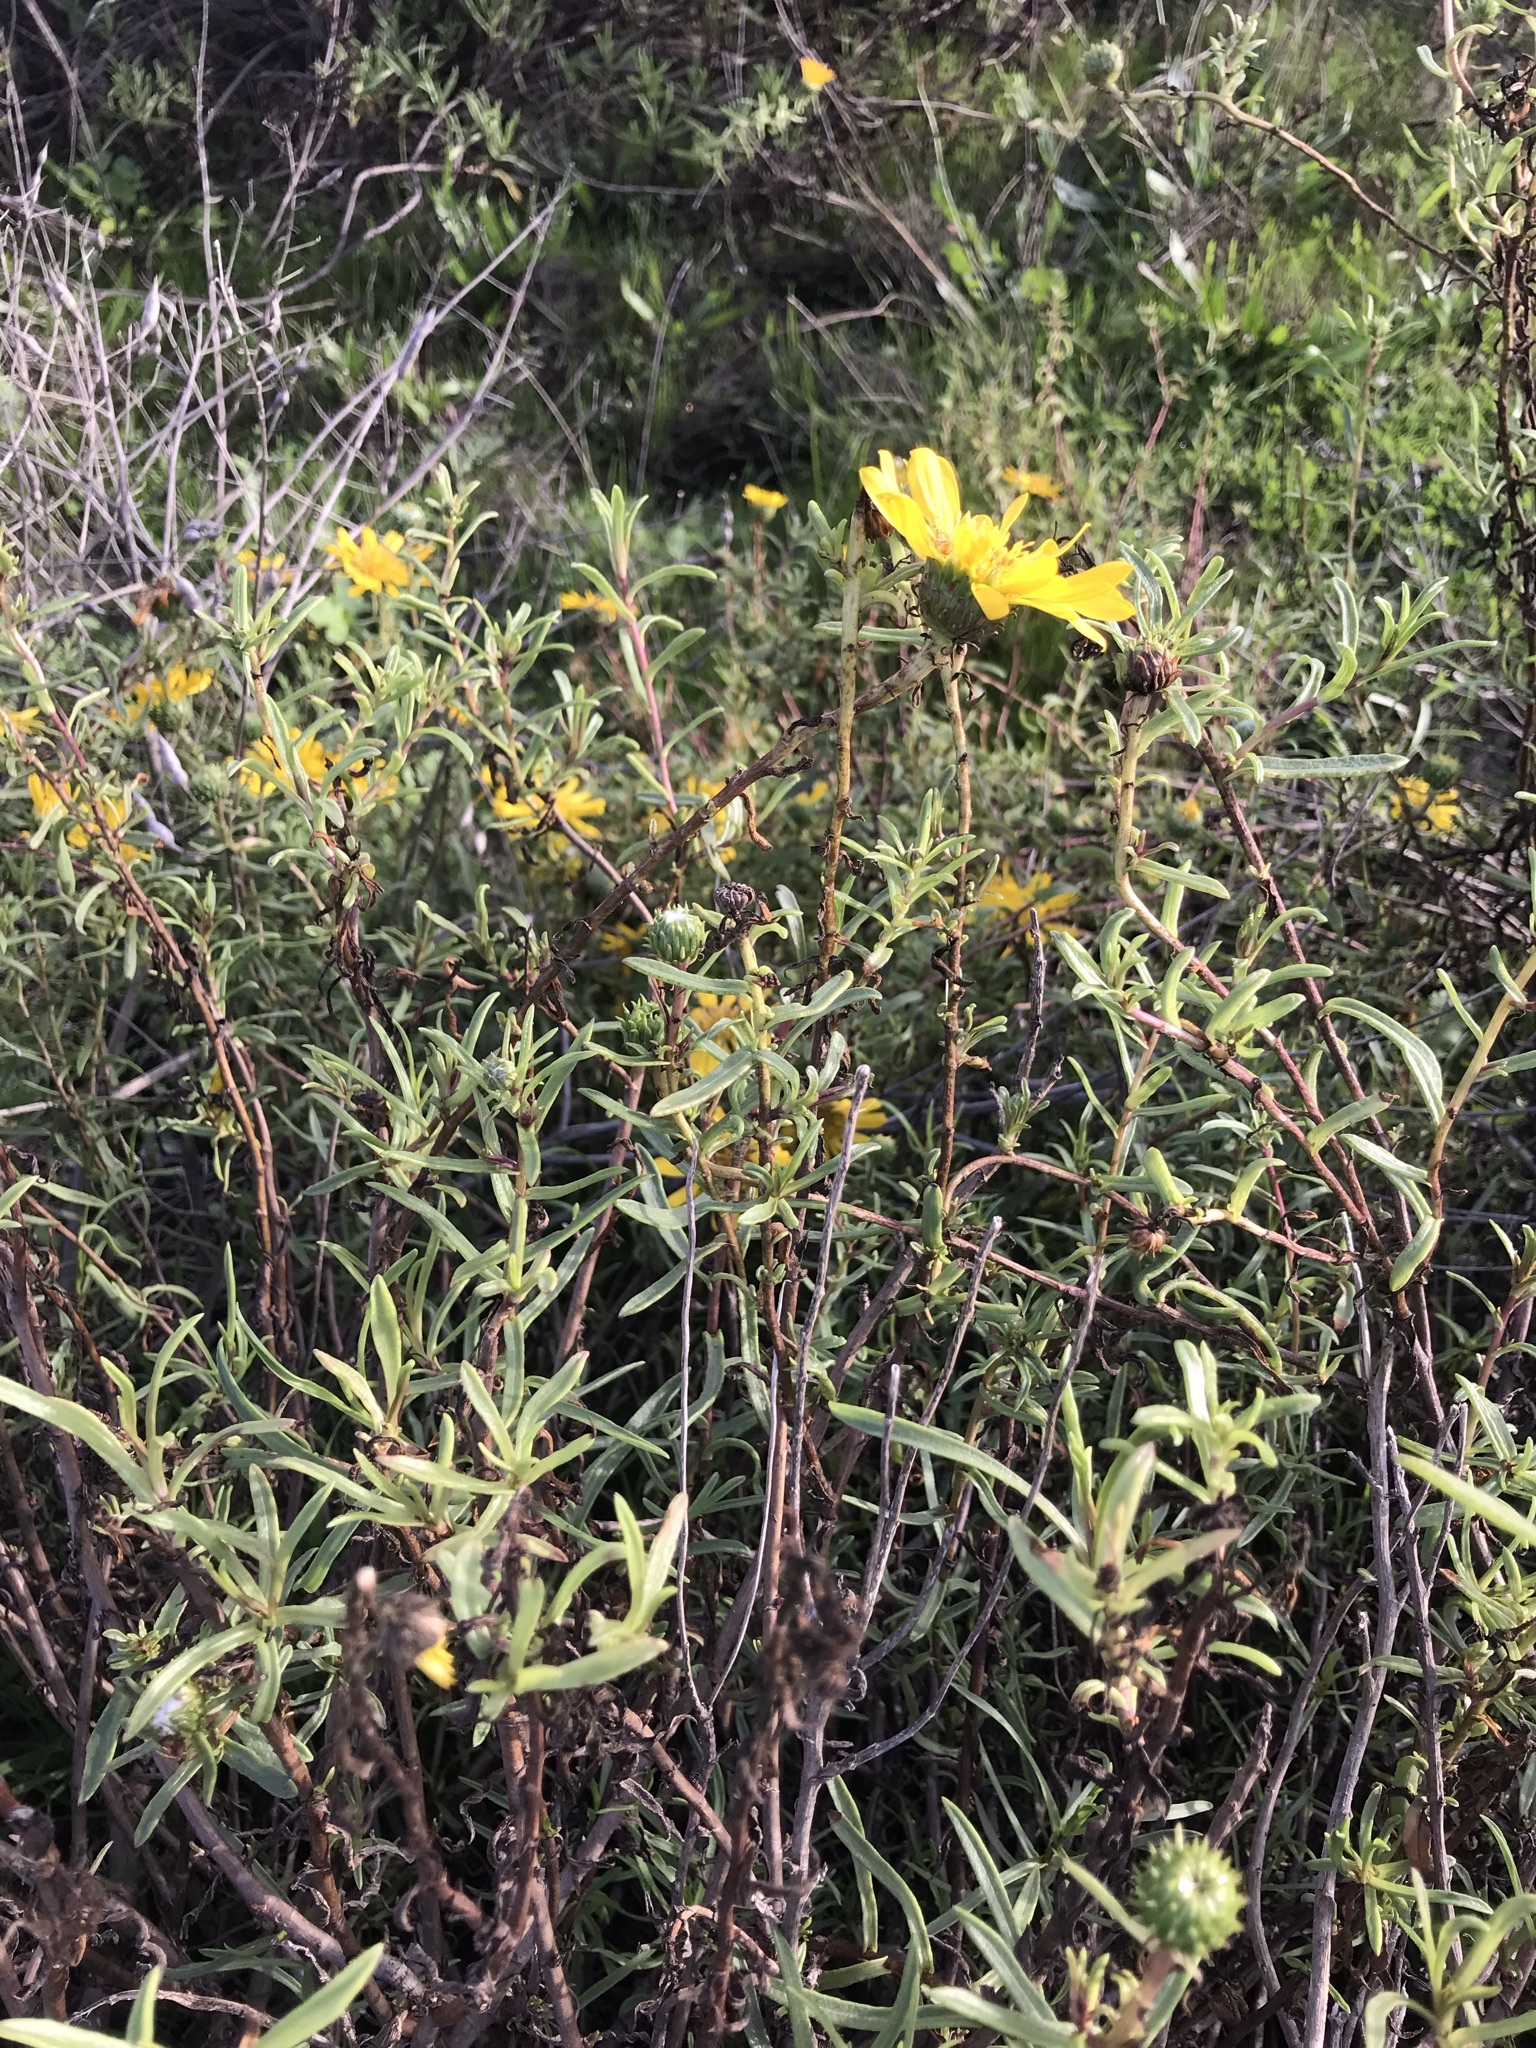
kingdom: Plantae
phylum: Tracheophyta
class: Magnoliopsida
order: Asterales
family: Asteraceae
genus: Grindelia
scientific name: Grindelia hirsutula
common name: Hairy gumweed
